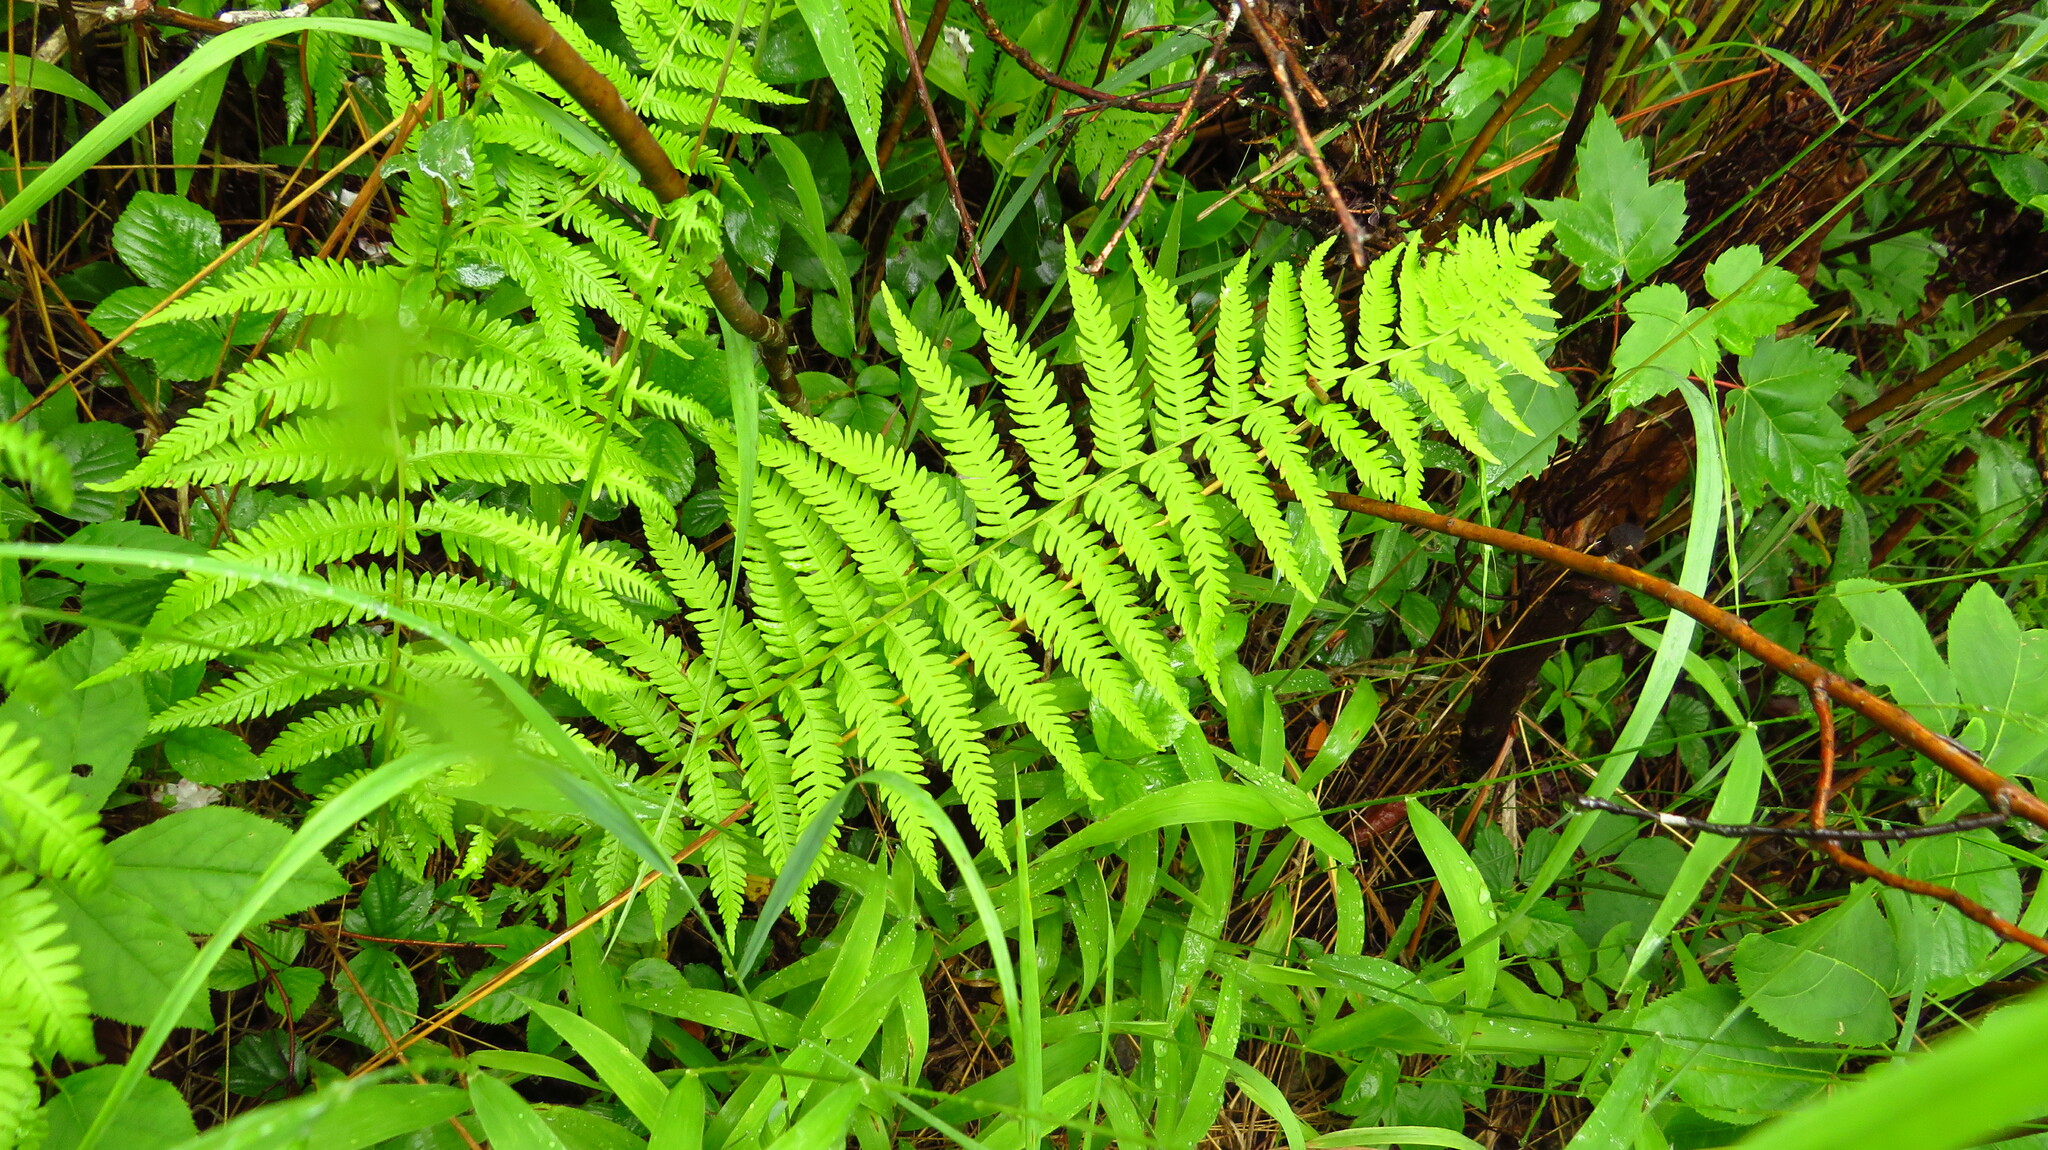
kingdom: Plantae
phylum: Tracheophyta
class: Polypodiopsida
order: Polypodiales
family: Thelypteridaceae
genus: Amauropelta
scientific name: Amauropelta noveboracensis
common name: New york fern
